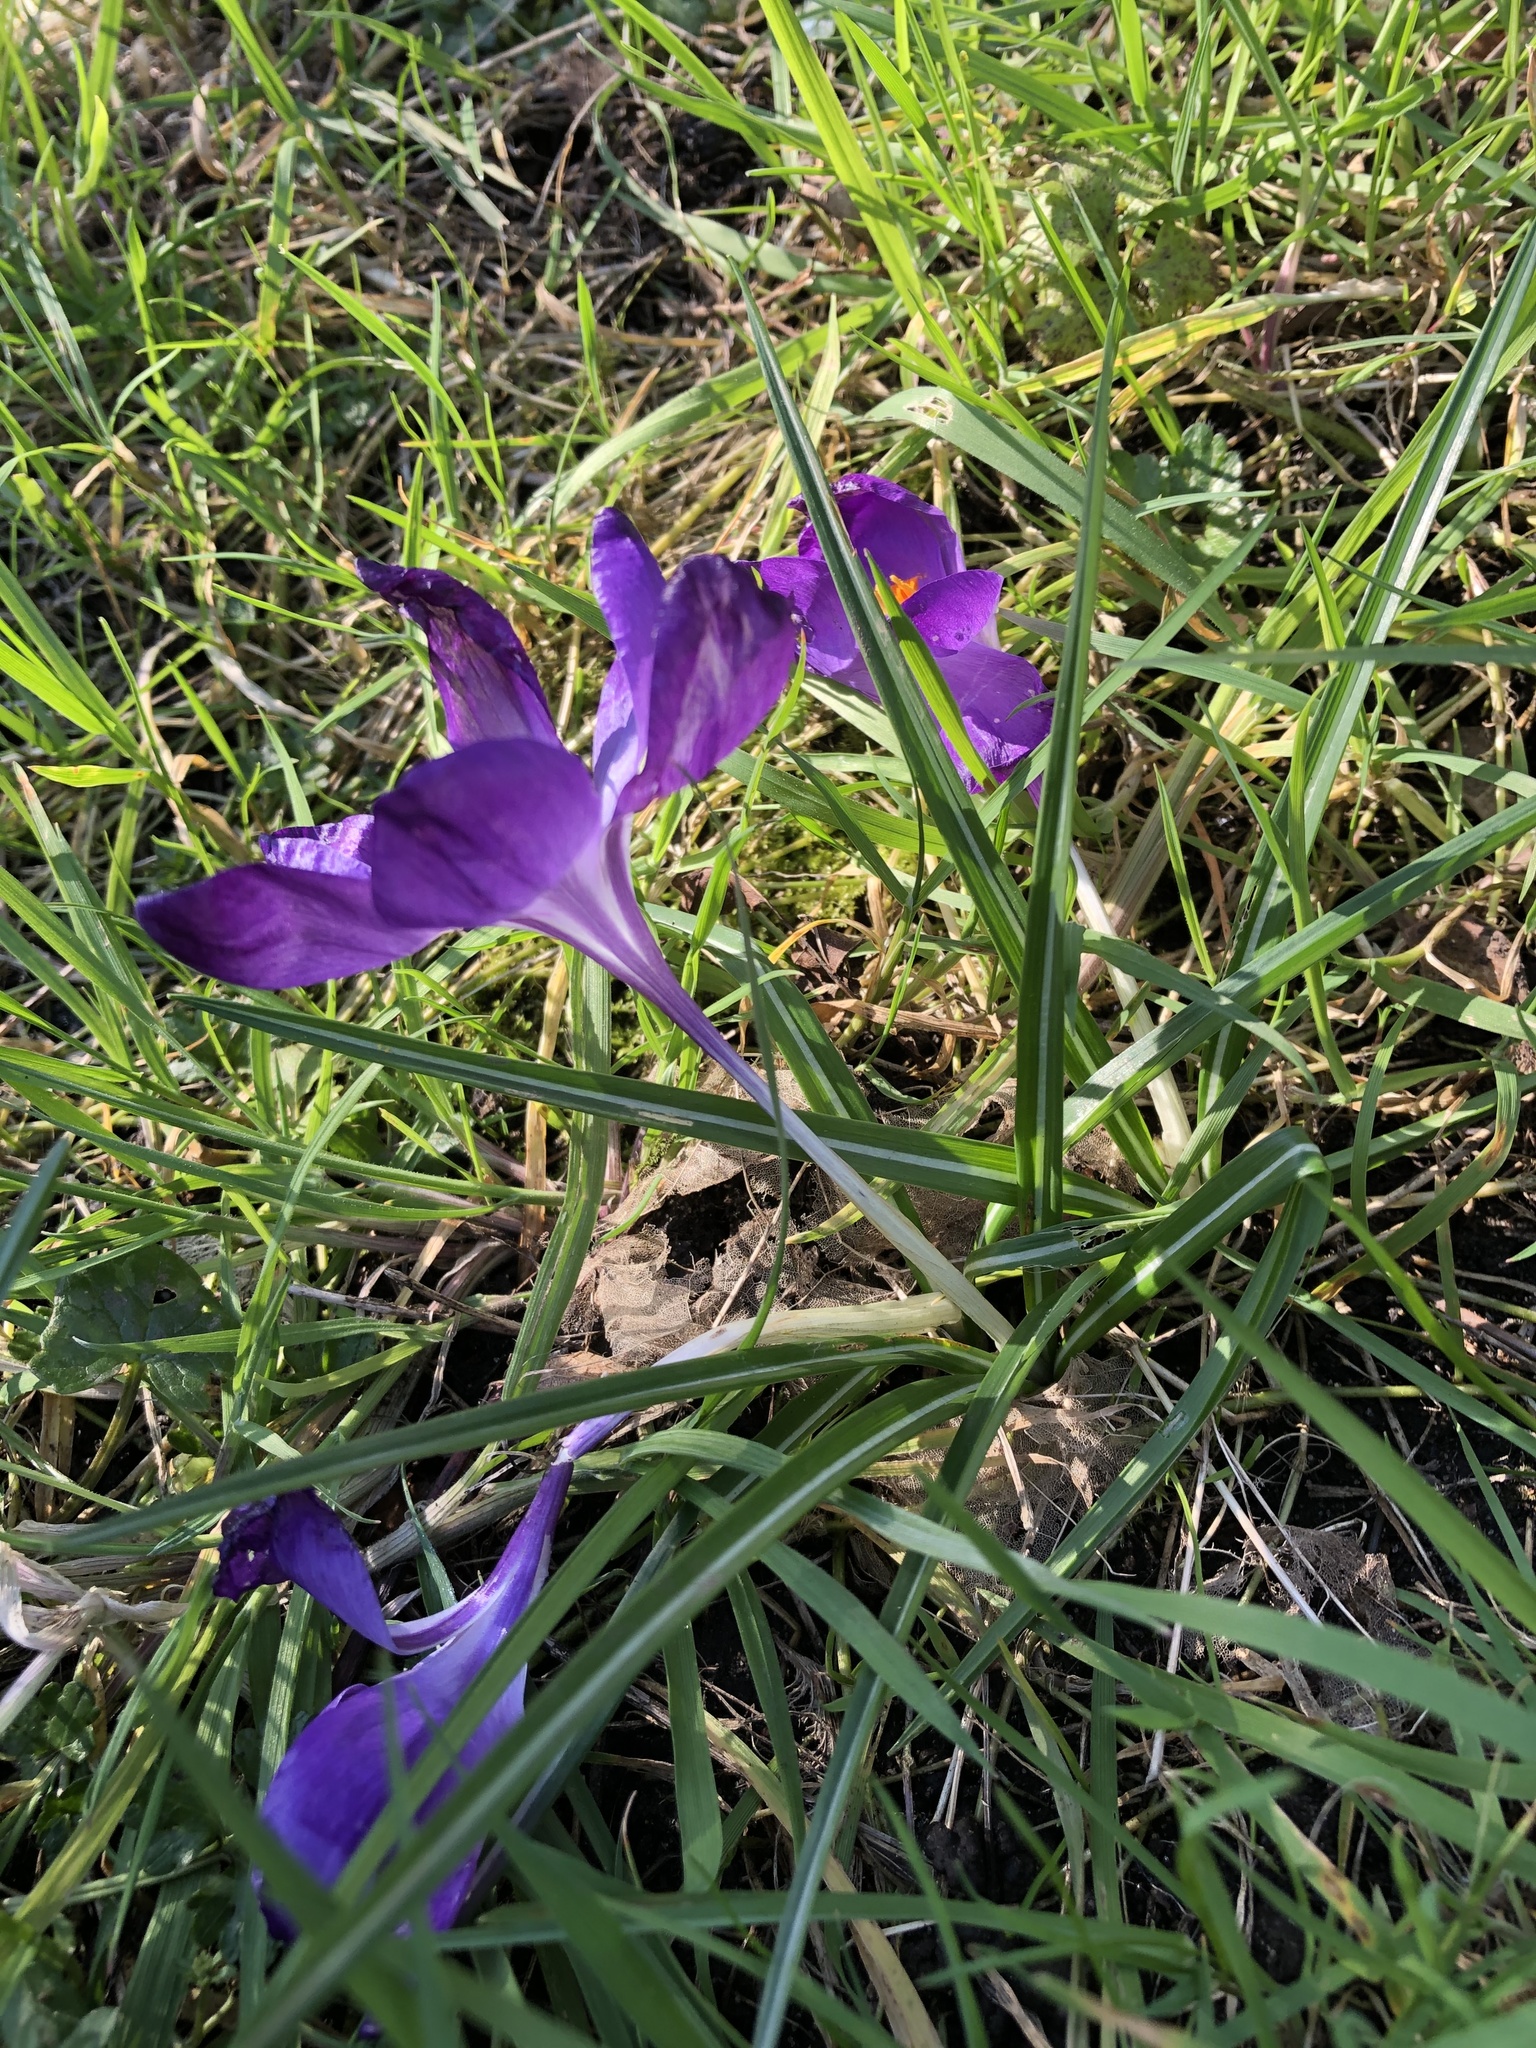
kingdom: Plantae
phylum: Tracheophyta
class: Liliopsida
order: Asparagales
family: Iridaceae
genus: Crocus
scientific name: Crocus
